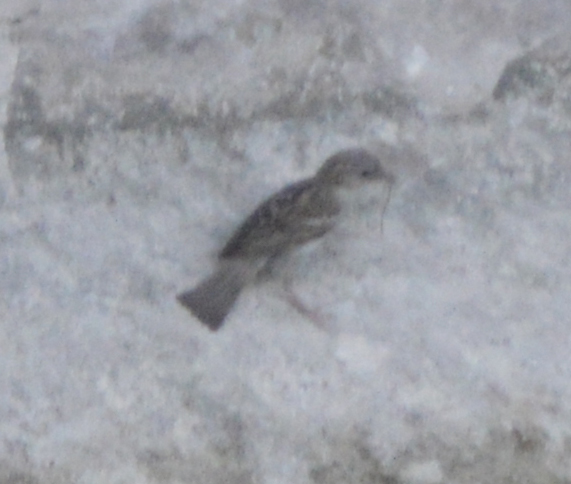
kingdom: Animalia
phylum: Chordata
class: Aves
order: Passeriformes
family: Passeridae
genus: Passer
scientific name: Passer domesticus
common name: House sparrow
